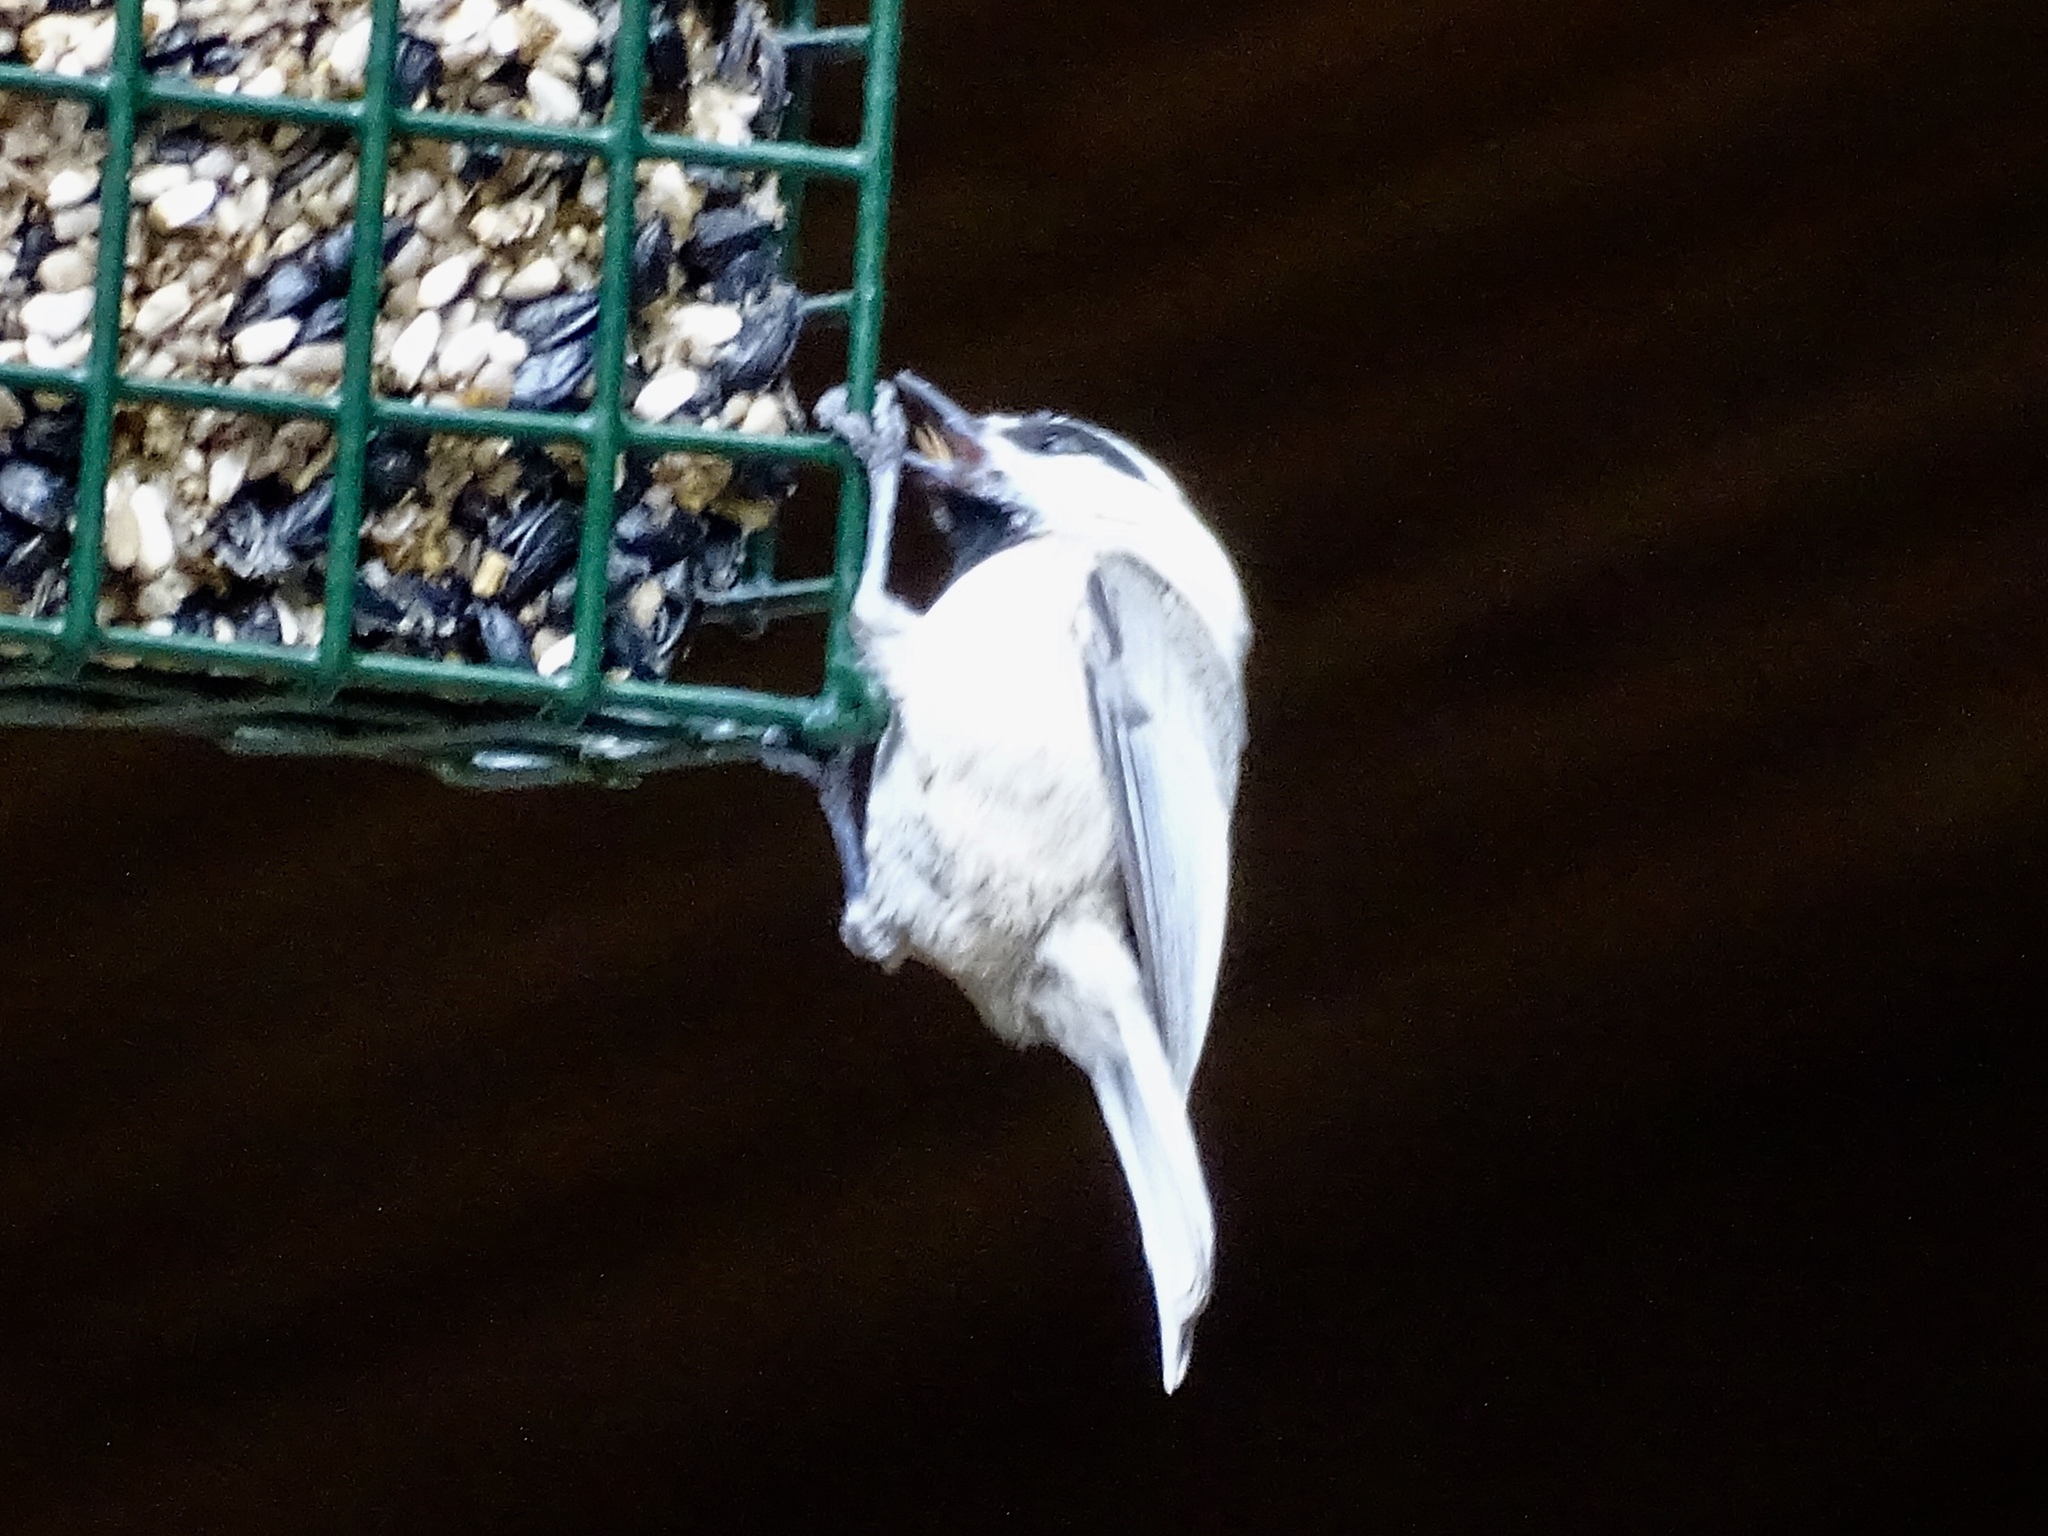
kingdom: Animalia
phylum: Chordata
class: Aves
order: Passeriformes
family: Paridae
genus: Poecile
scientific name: Poecile gambeli
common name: Mountain chickadee
